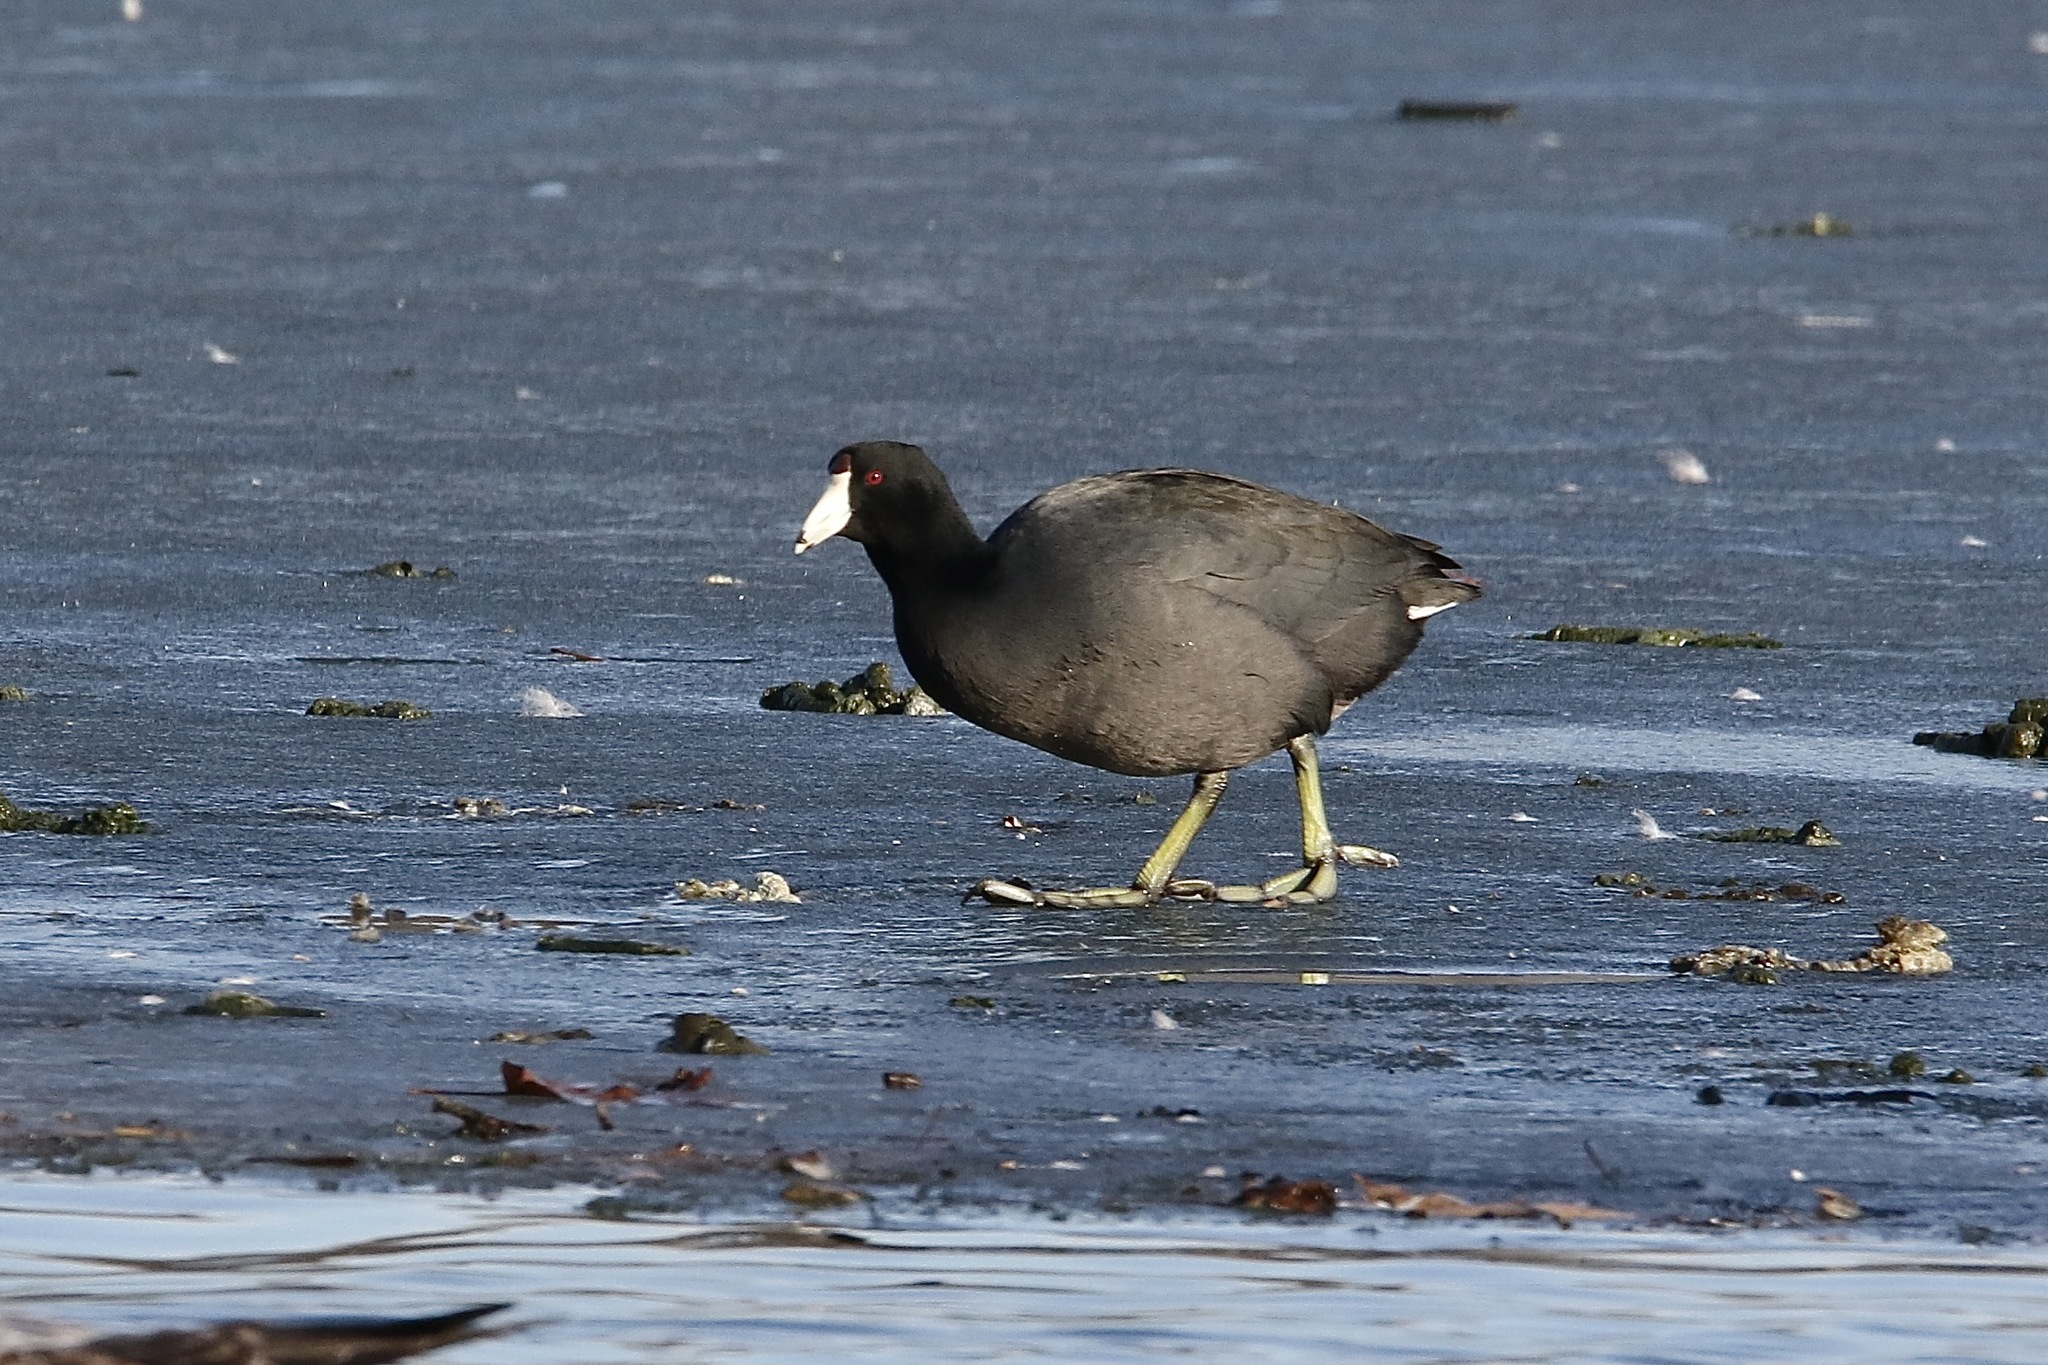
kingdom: Animalia
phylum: Chordata
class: Aves
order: Gruiformes
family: Rallidae
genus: Fulica
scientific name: Fulica americana
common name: American coot
